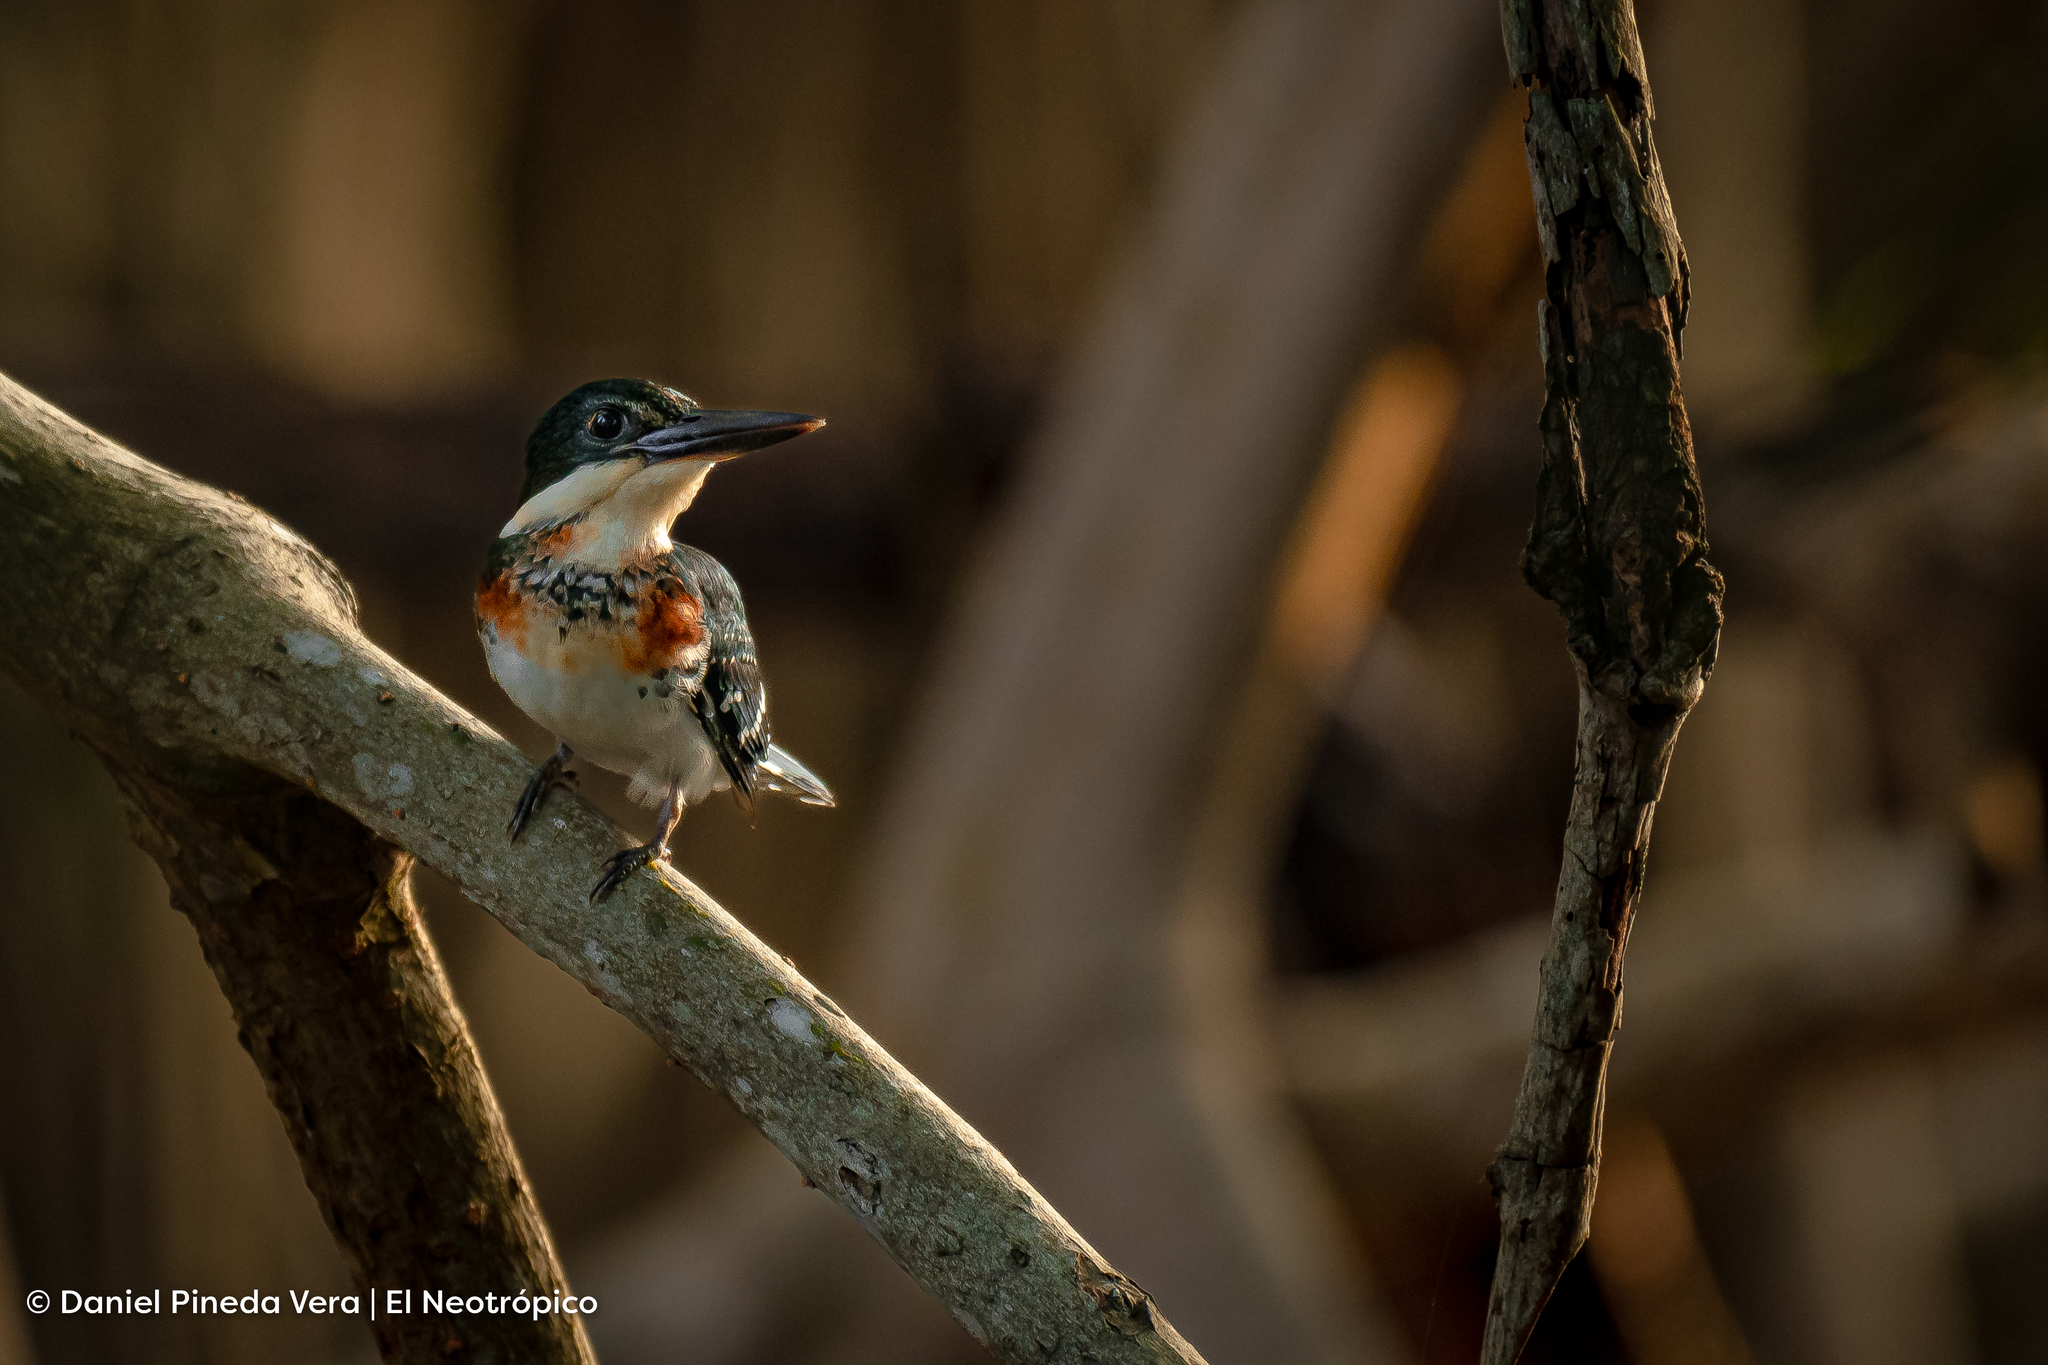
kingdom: Animalia
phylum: Chordata
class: Aves
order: Coraciiformes
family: Alcedinidae
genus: Chloroceryle
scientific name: Chloroceryle americana
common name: Green kingfisher
